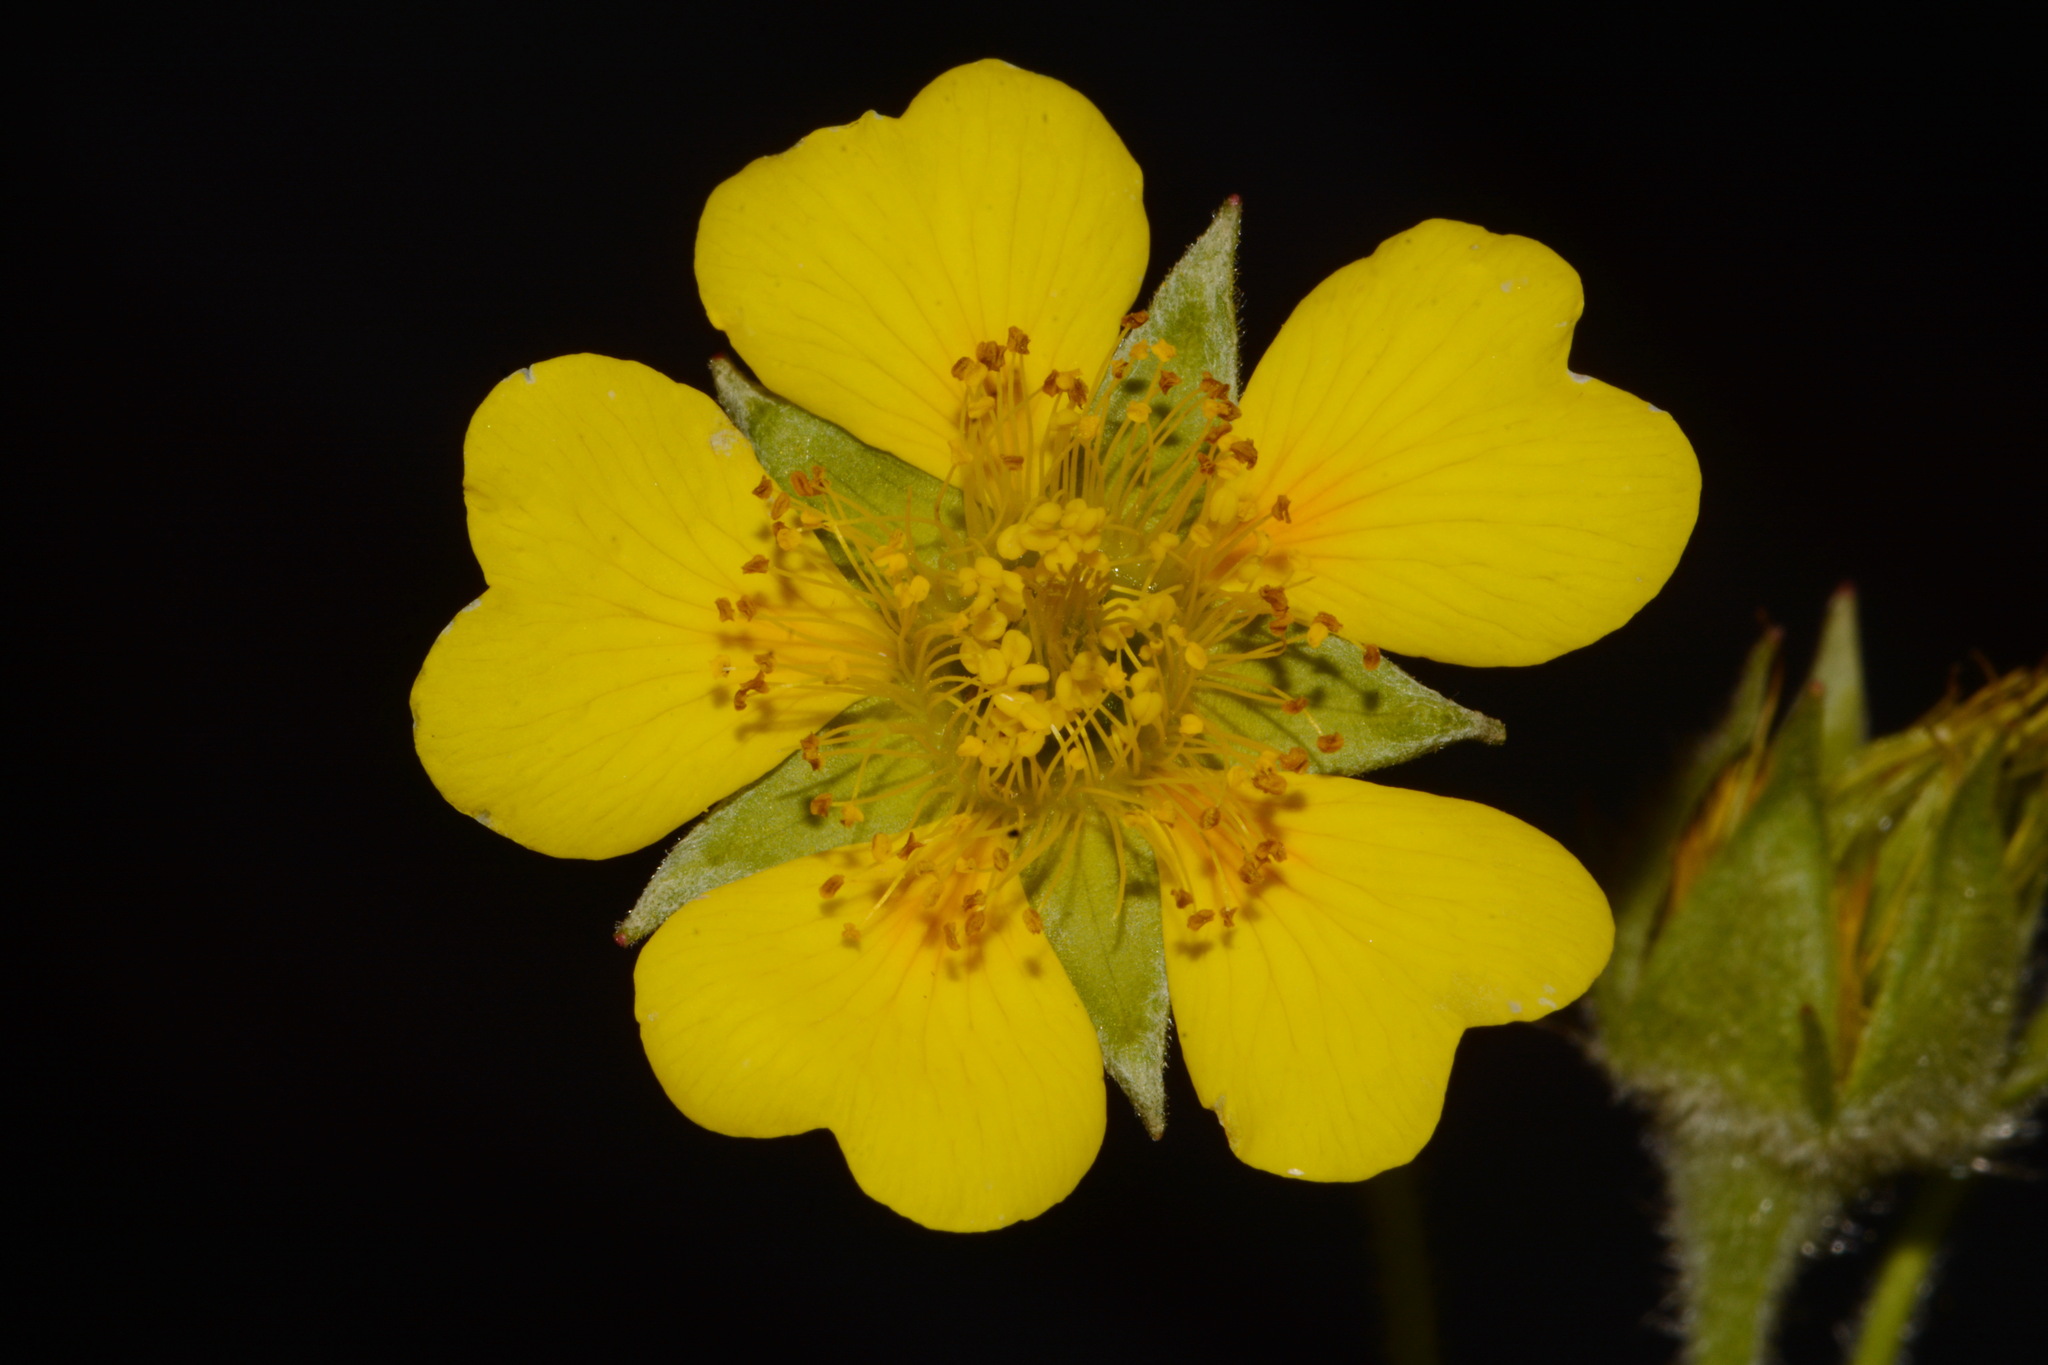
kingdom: Plantae
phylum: Tracheophyta
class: Magnoliopsida
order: Rosales
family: Rosaceae
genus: Geum
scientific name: Geum radiatum
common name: Spreaded avens
